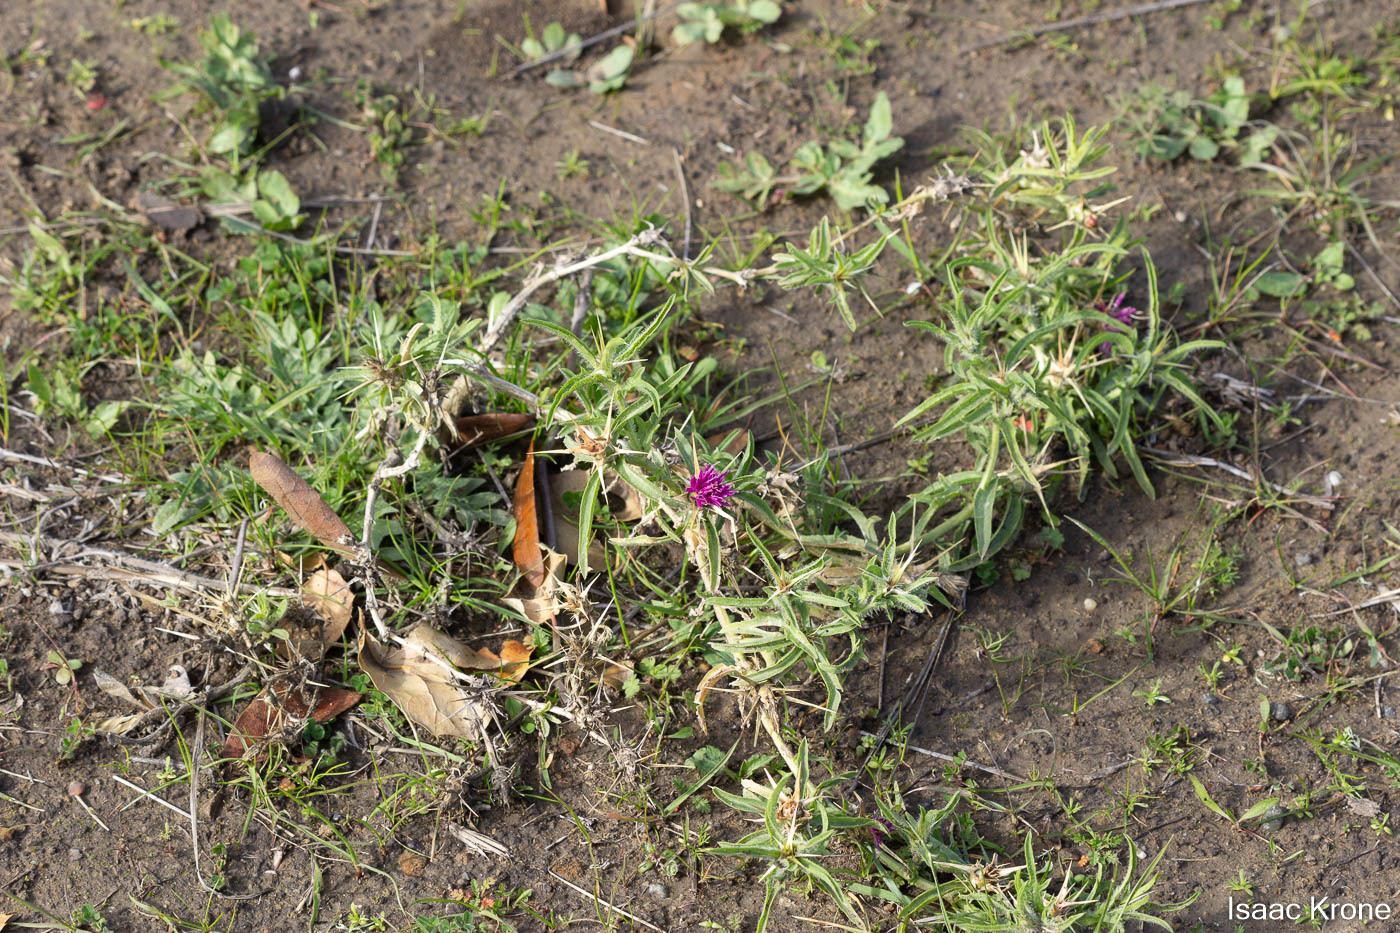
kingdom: Plantae
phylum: Tracheophyta
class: Magnoliopsida
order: Asterales
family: Asteraceae
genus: Centaurea
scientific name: Centaurea calcitrapa
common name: Red star-thistle
